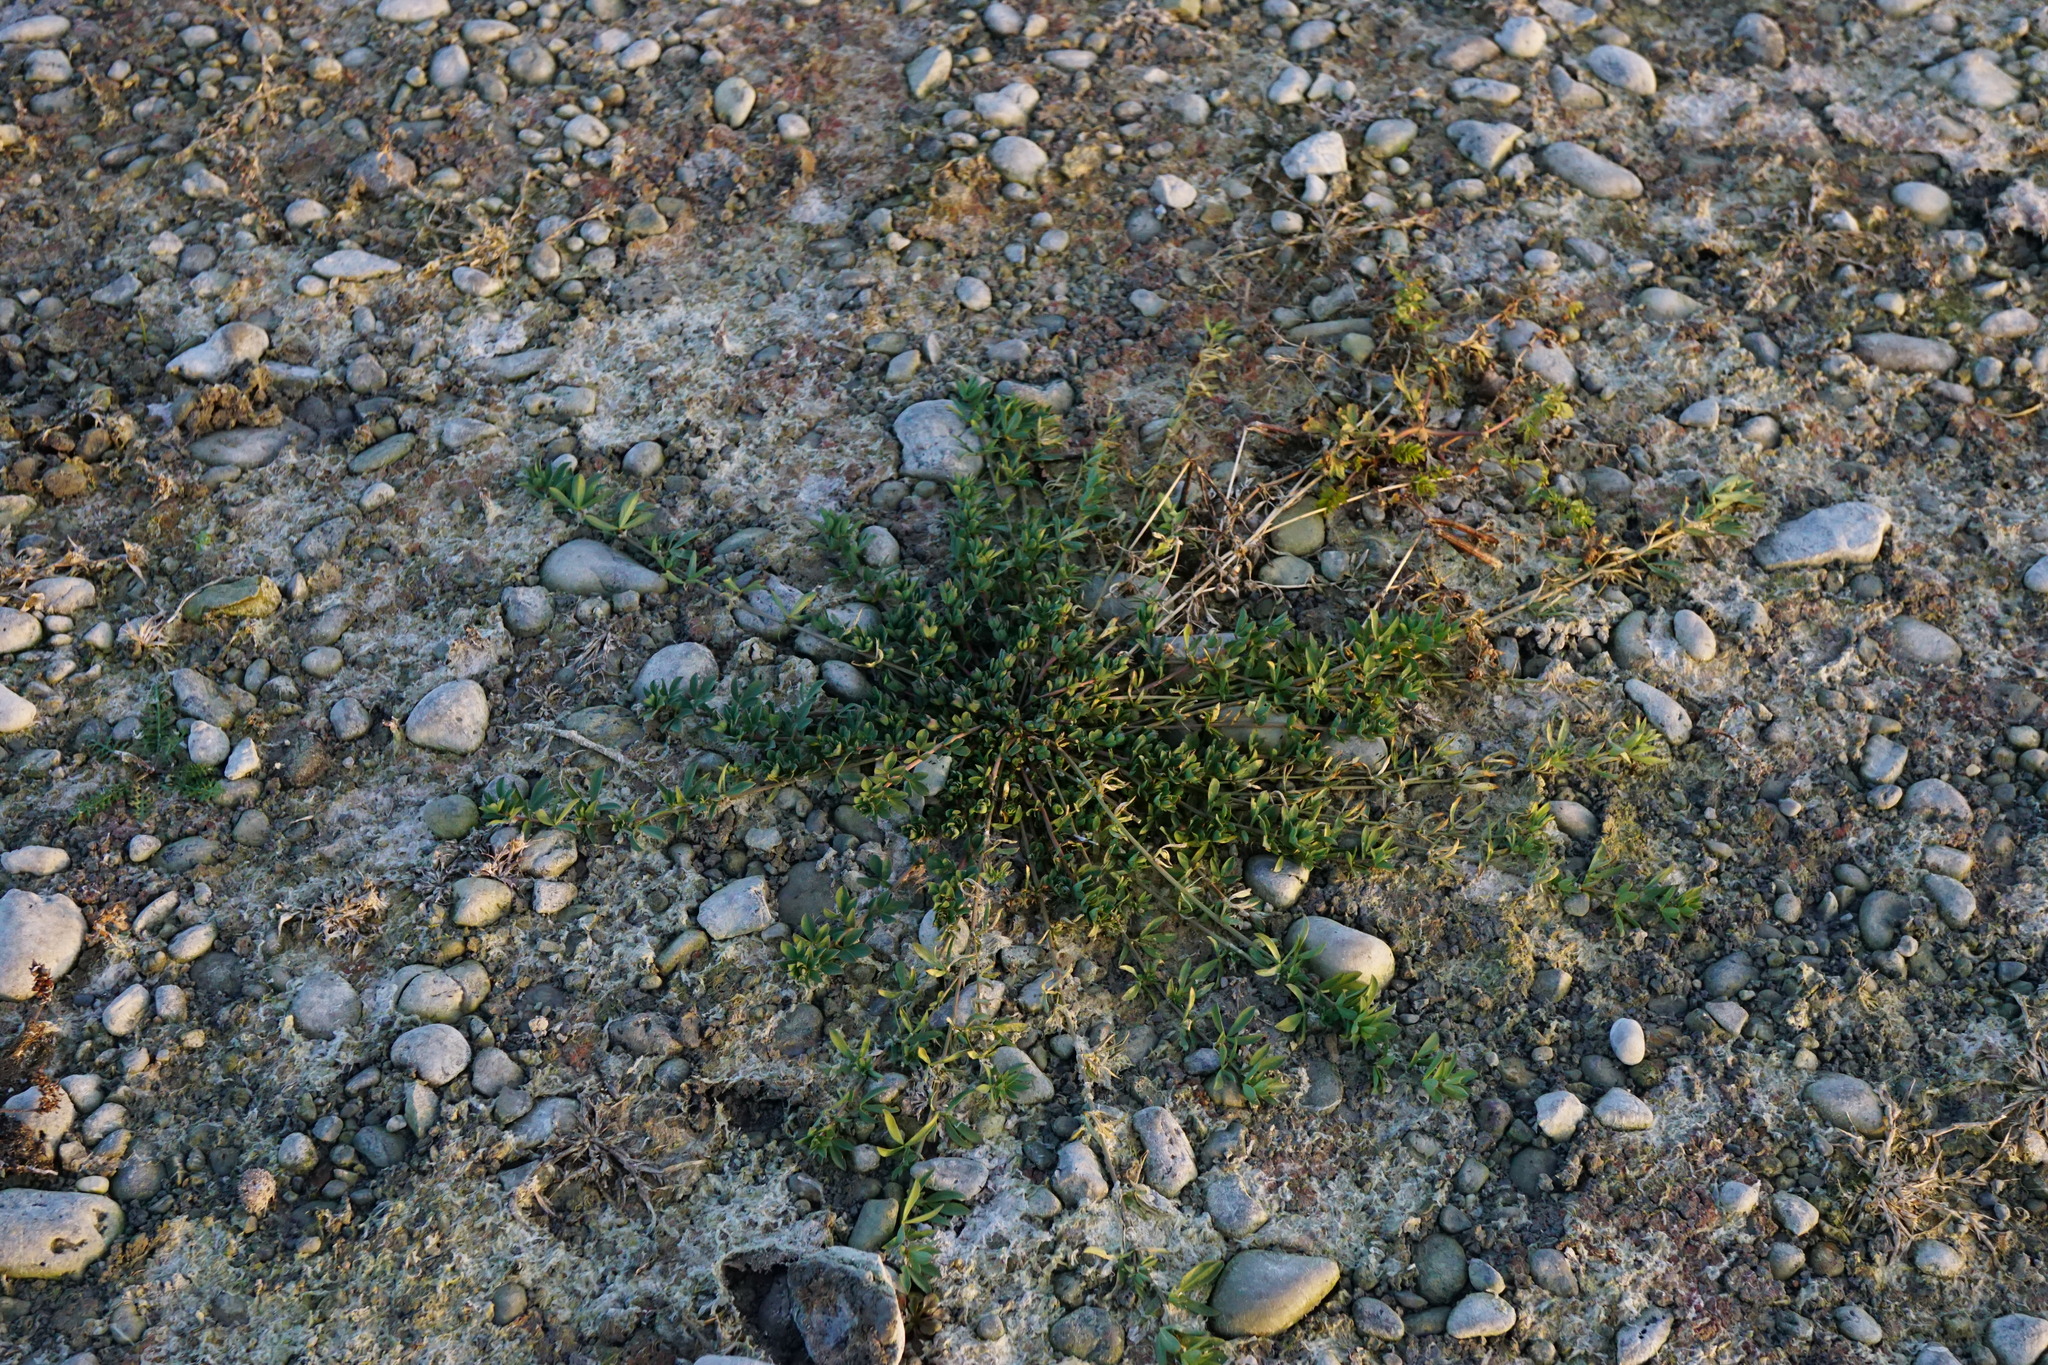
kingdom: Plantae
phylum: Tracheophyta
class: Magnoliopsida
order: Fabales
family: Fabaceae
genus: Lotus
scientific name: Lotus tenuis
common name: Narrow-leaved bird's-foot-trefoil
